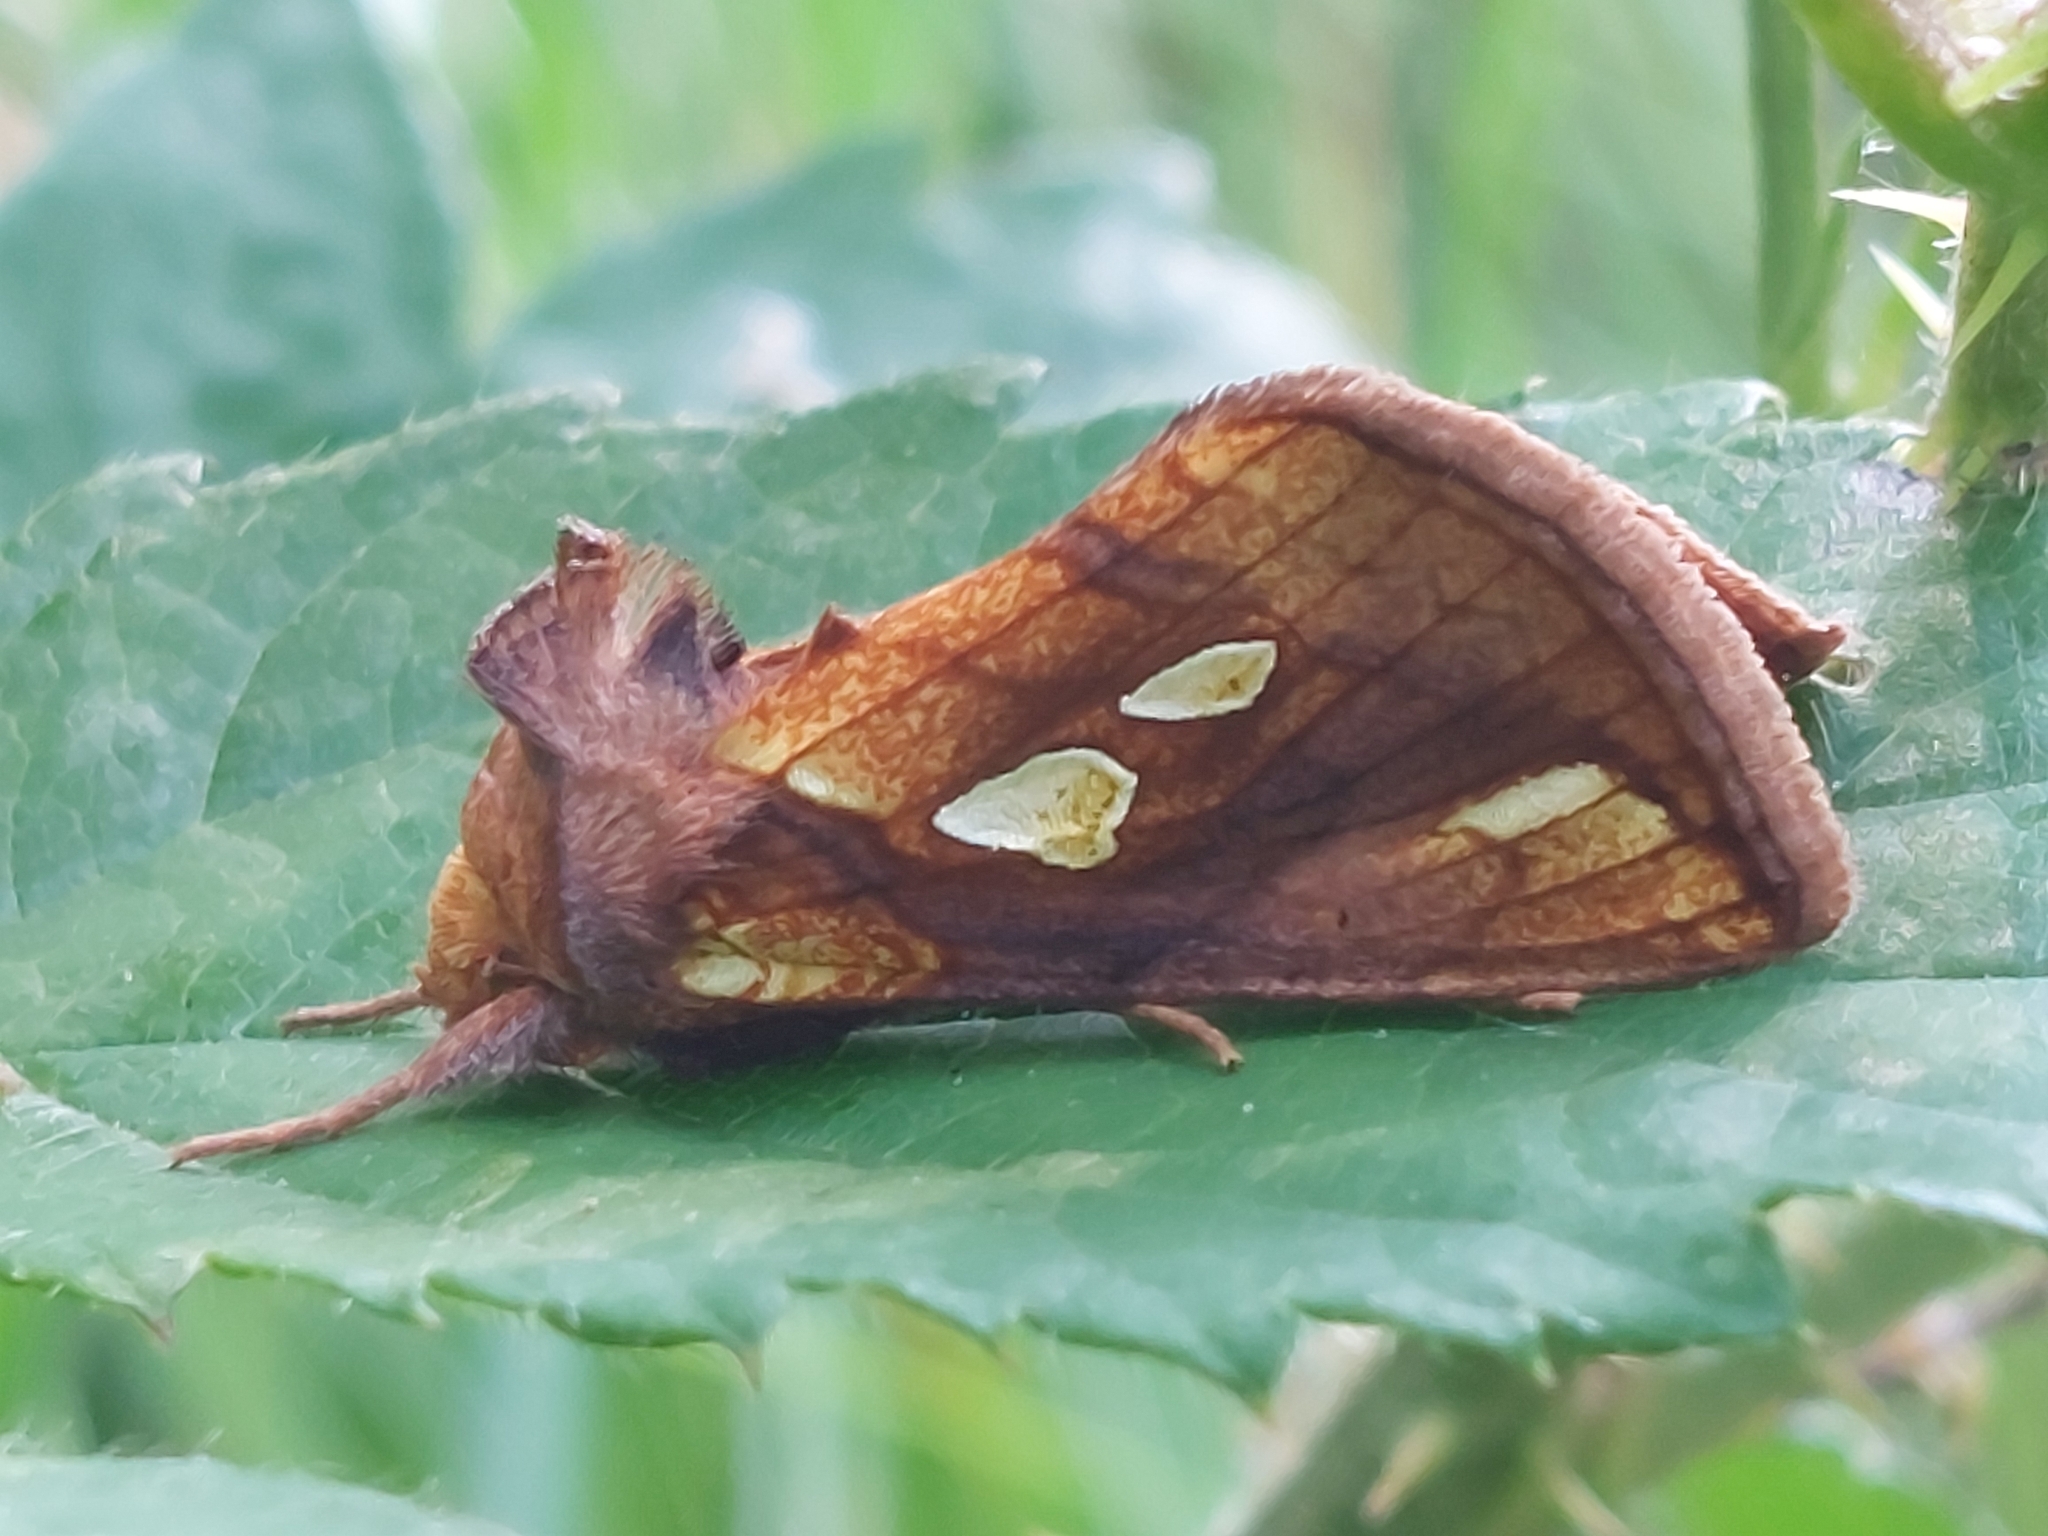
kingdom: Animalia
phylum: Arthropoda
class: Insecta
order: Lepidoptera
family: Noctuidae
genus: Plusia
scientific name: Plusia festucae
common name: Gold spot
